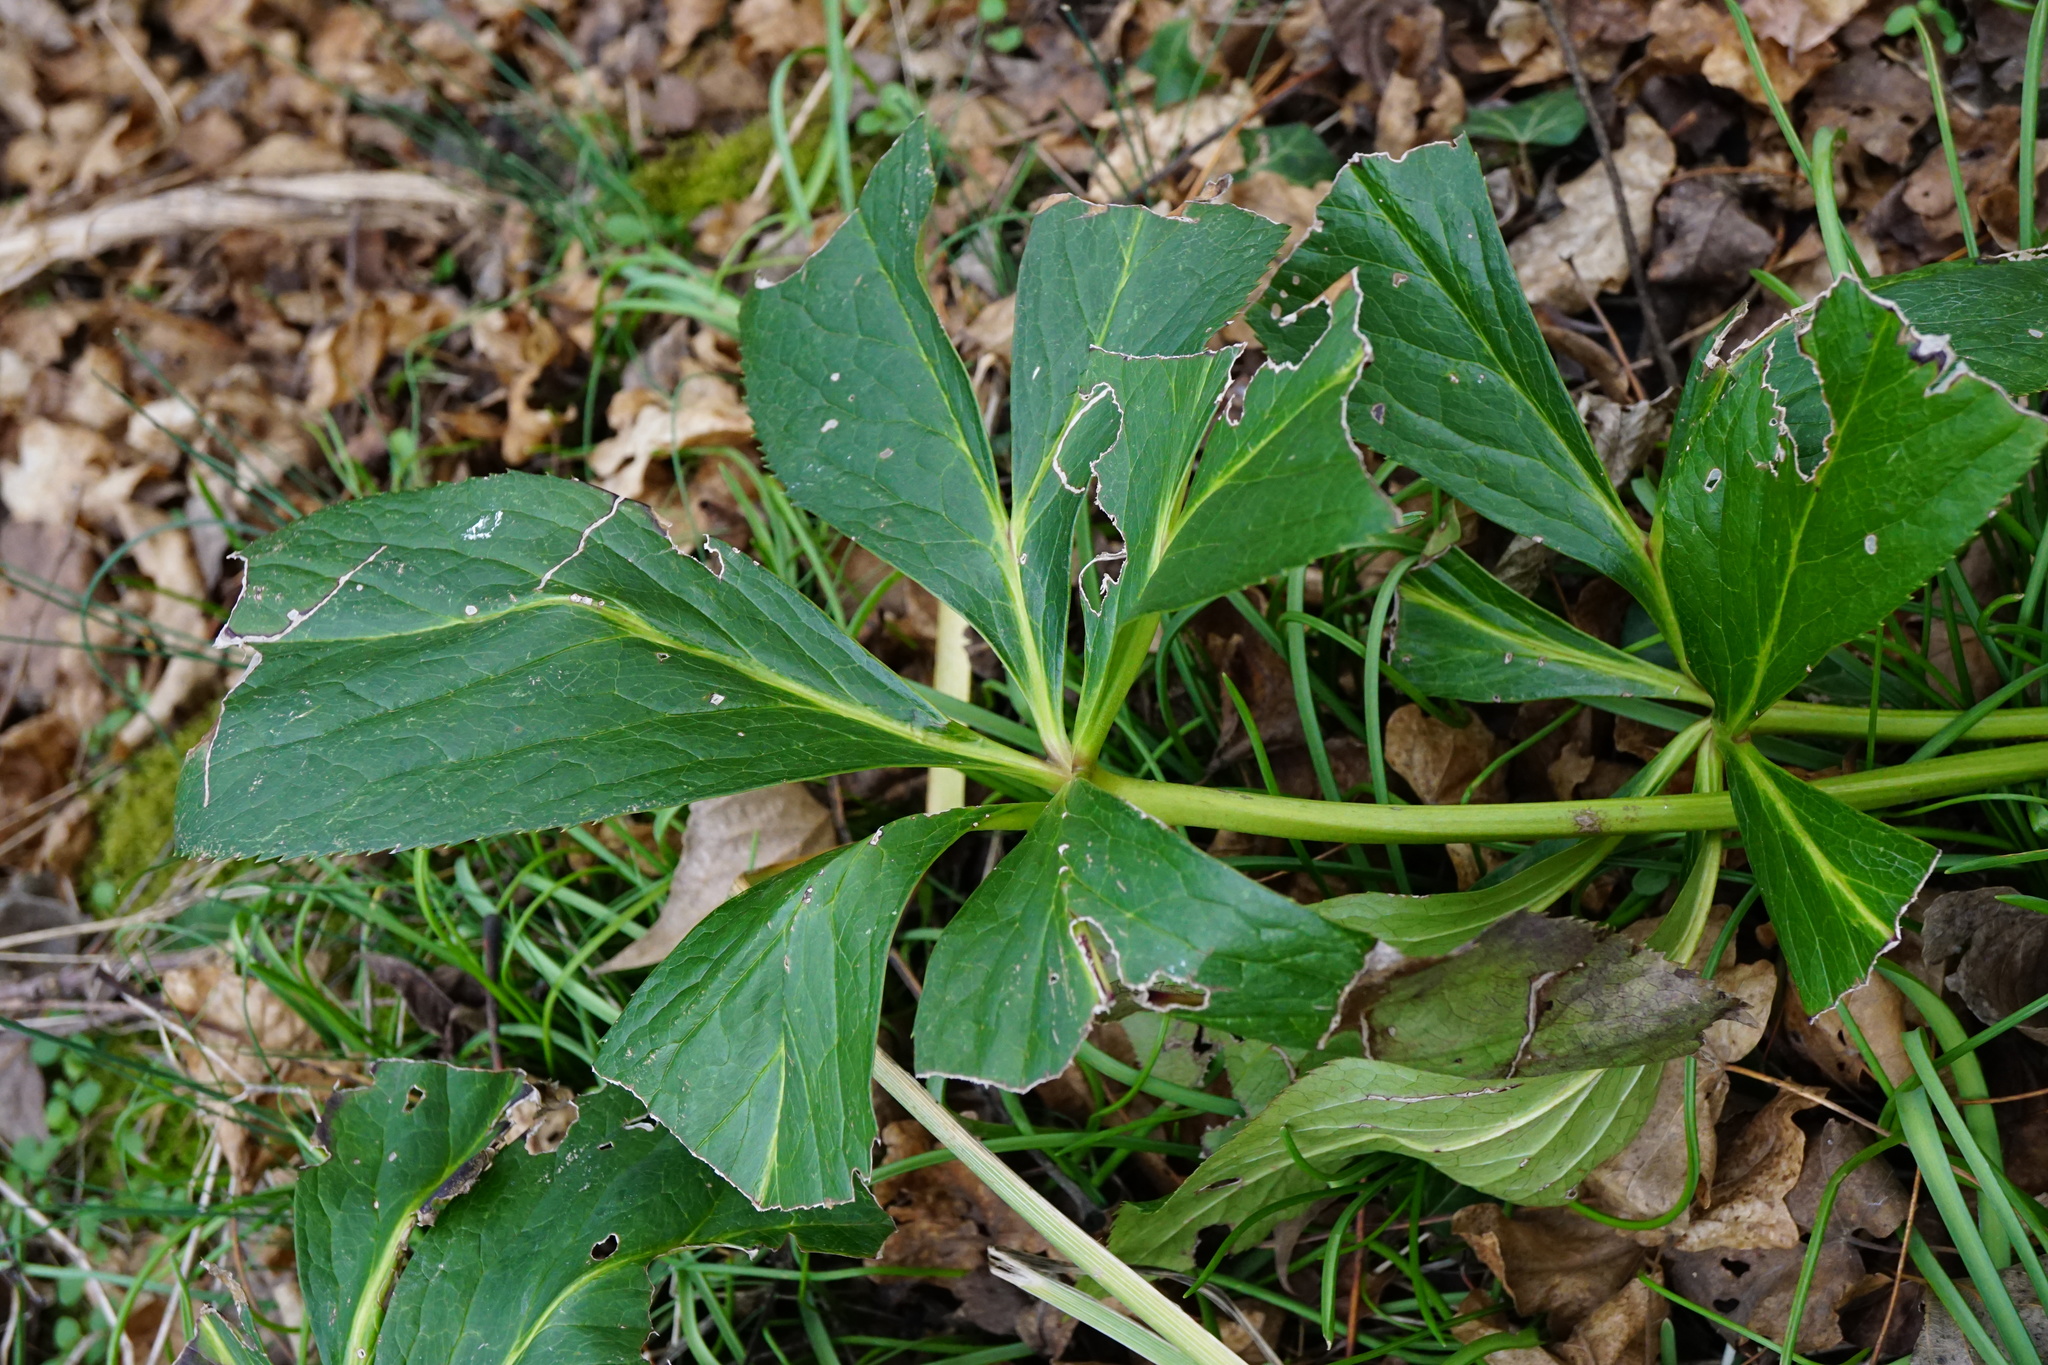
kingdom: Plantae
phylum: Tracheophyta
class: Magnoliopsida
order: Ranunculales
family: Ranunculaceae
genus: Helleborus
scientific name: Helleborus hybridus
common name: Hybrid lenten-rose
